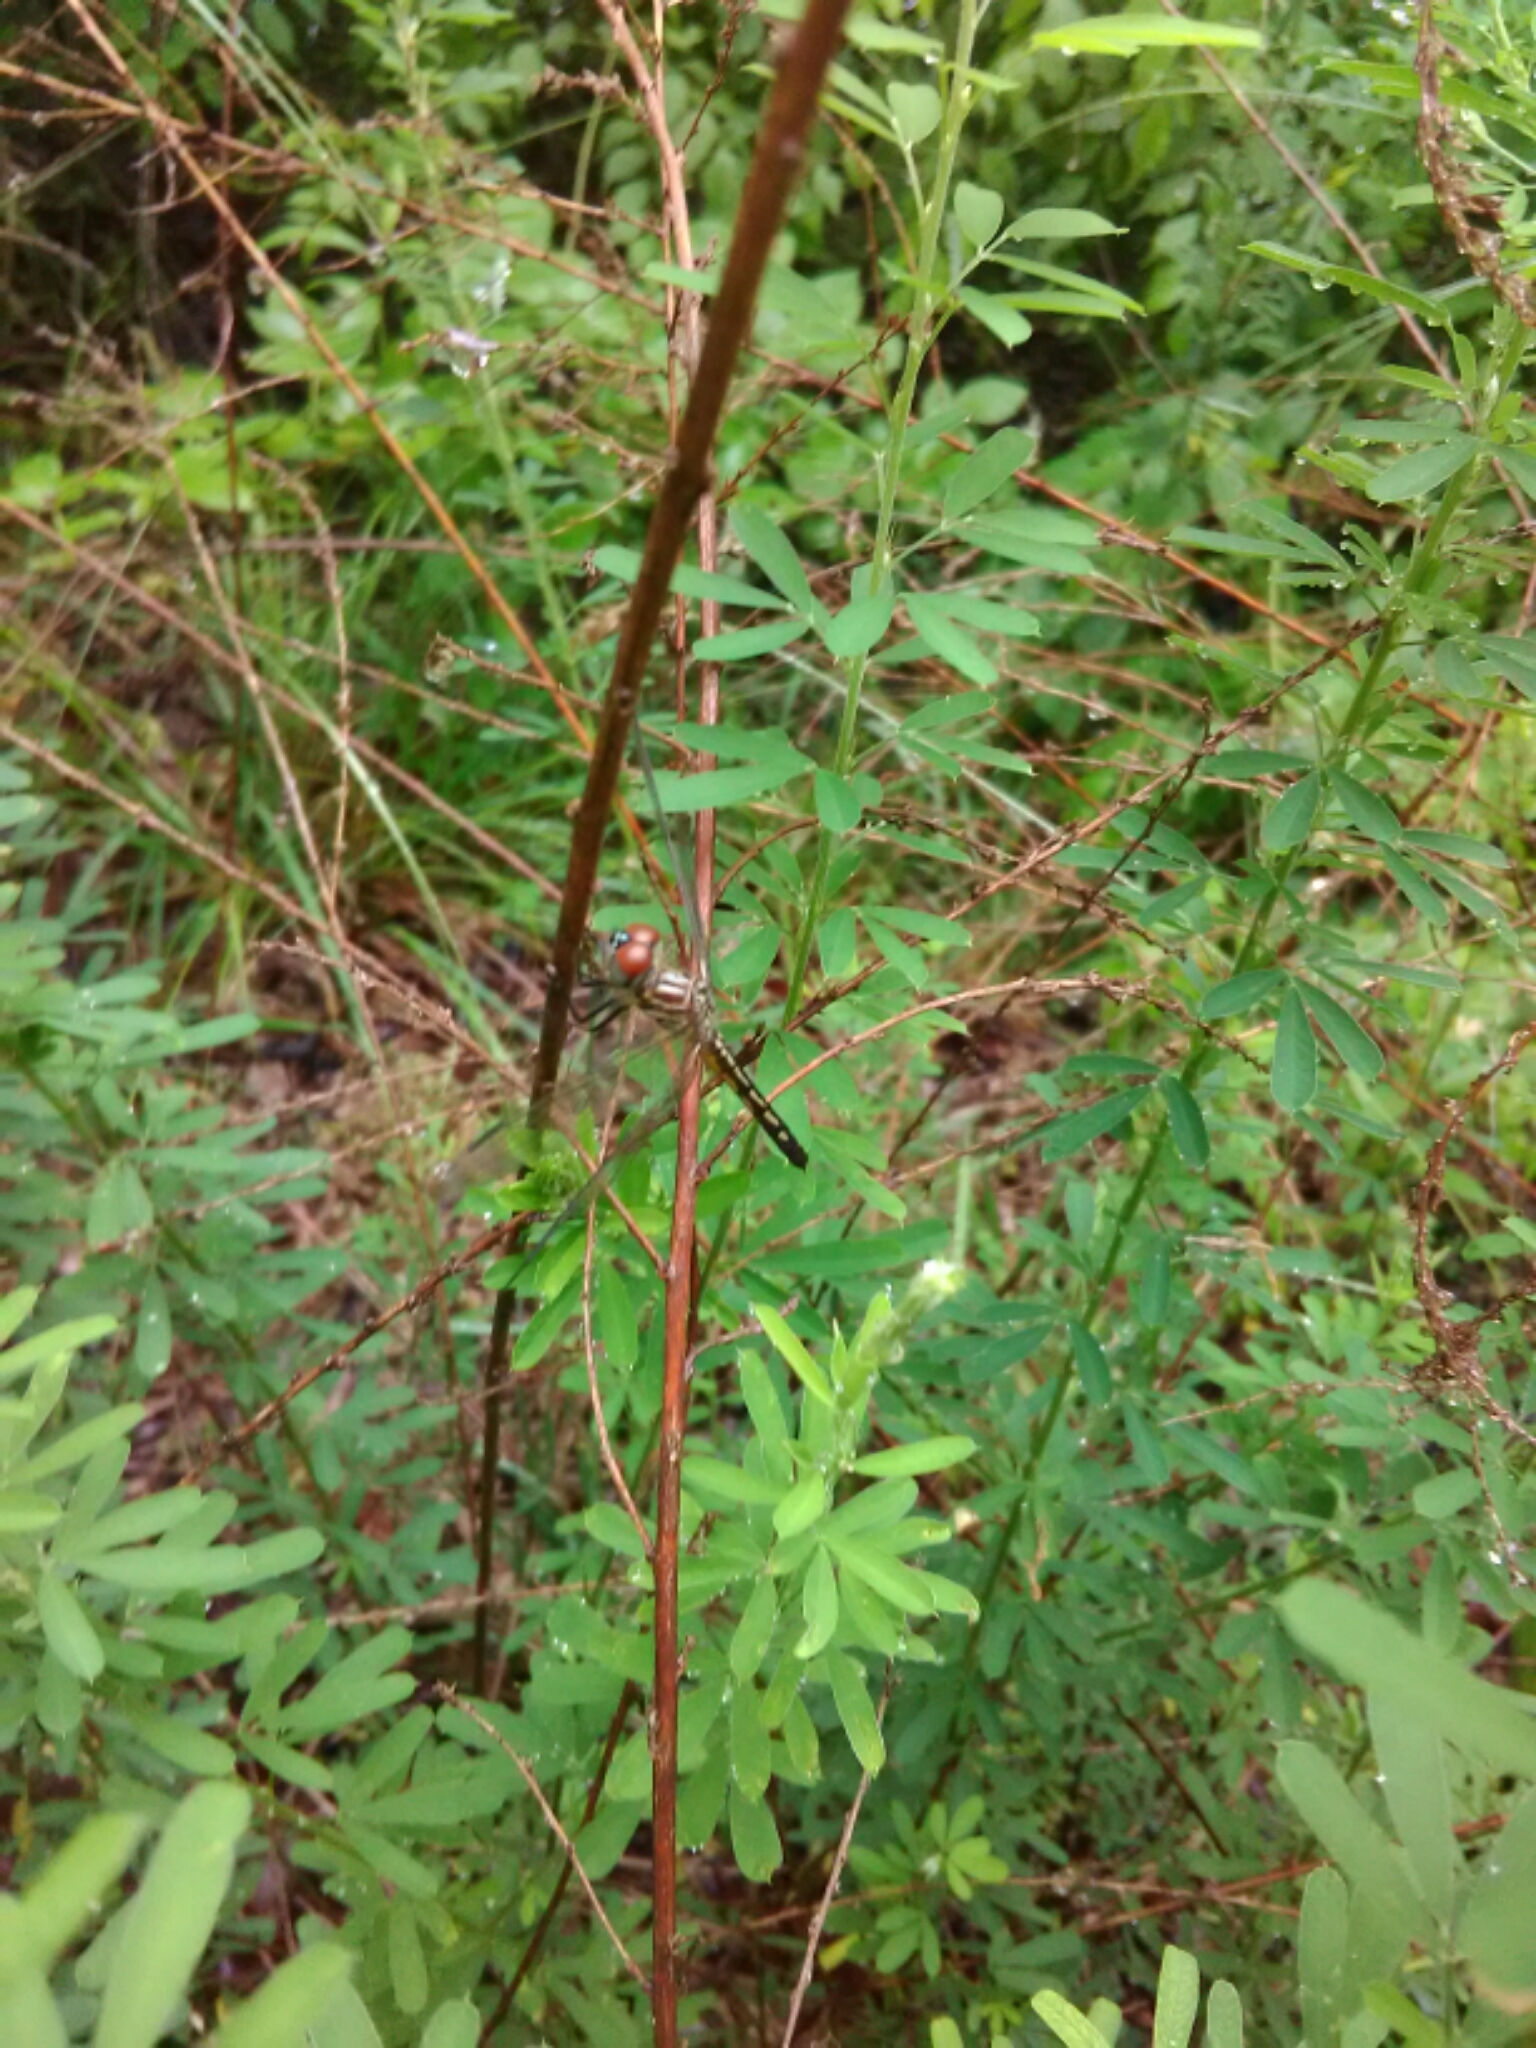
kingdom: Animalia
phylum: Arthropoda
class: Insecta
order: Odonata
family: Libellulidae
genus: Pachydiplax
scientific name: Pachydiplax longipennis
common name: Blue dasher
